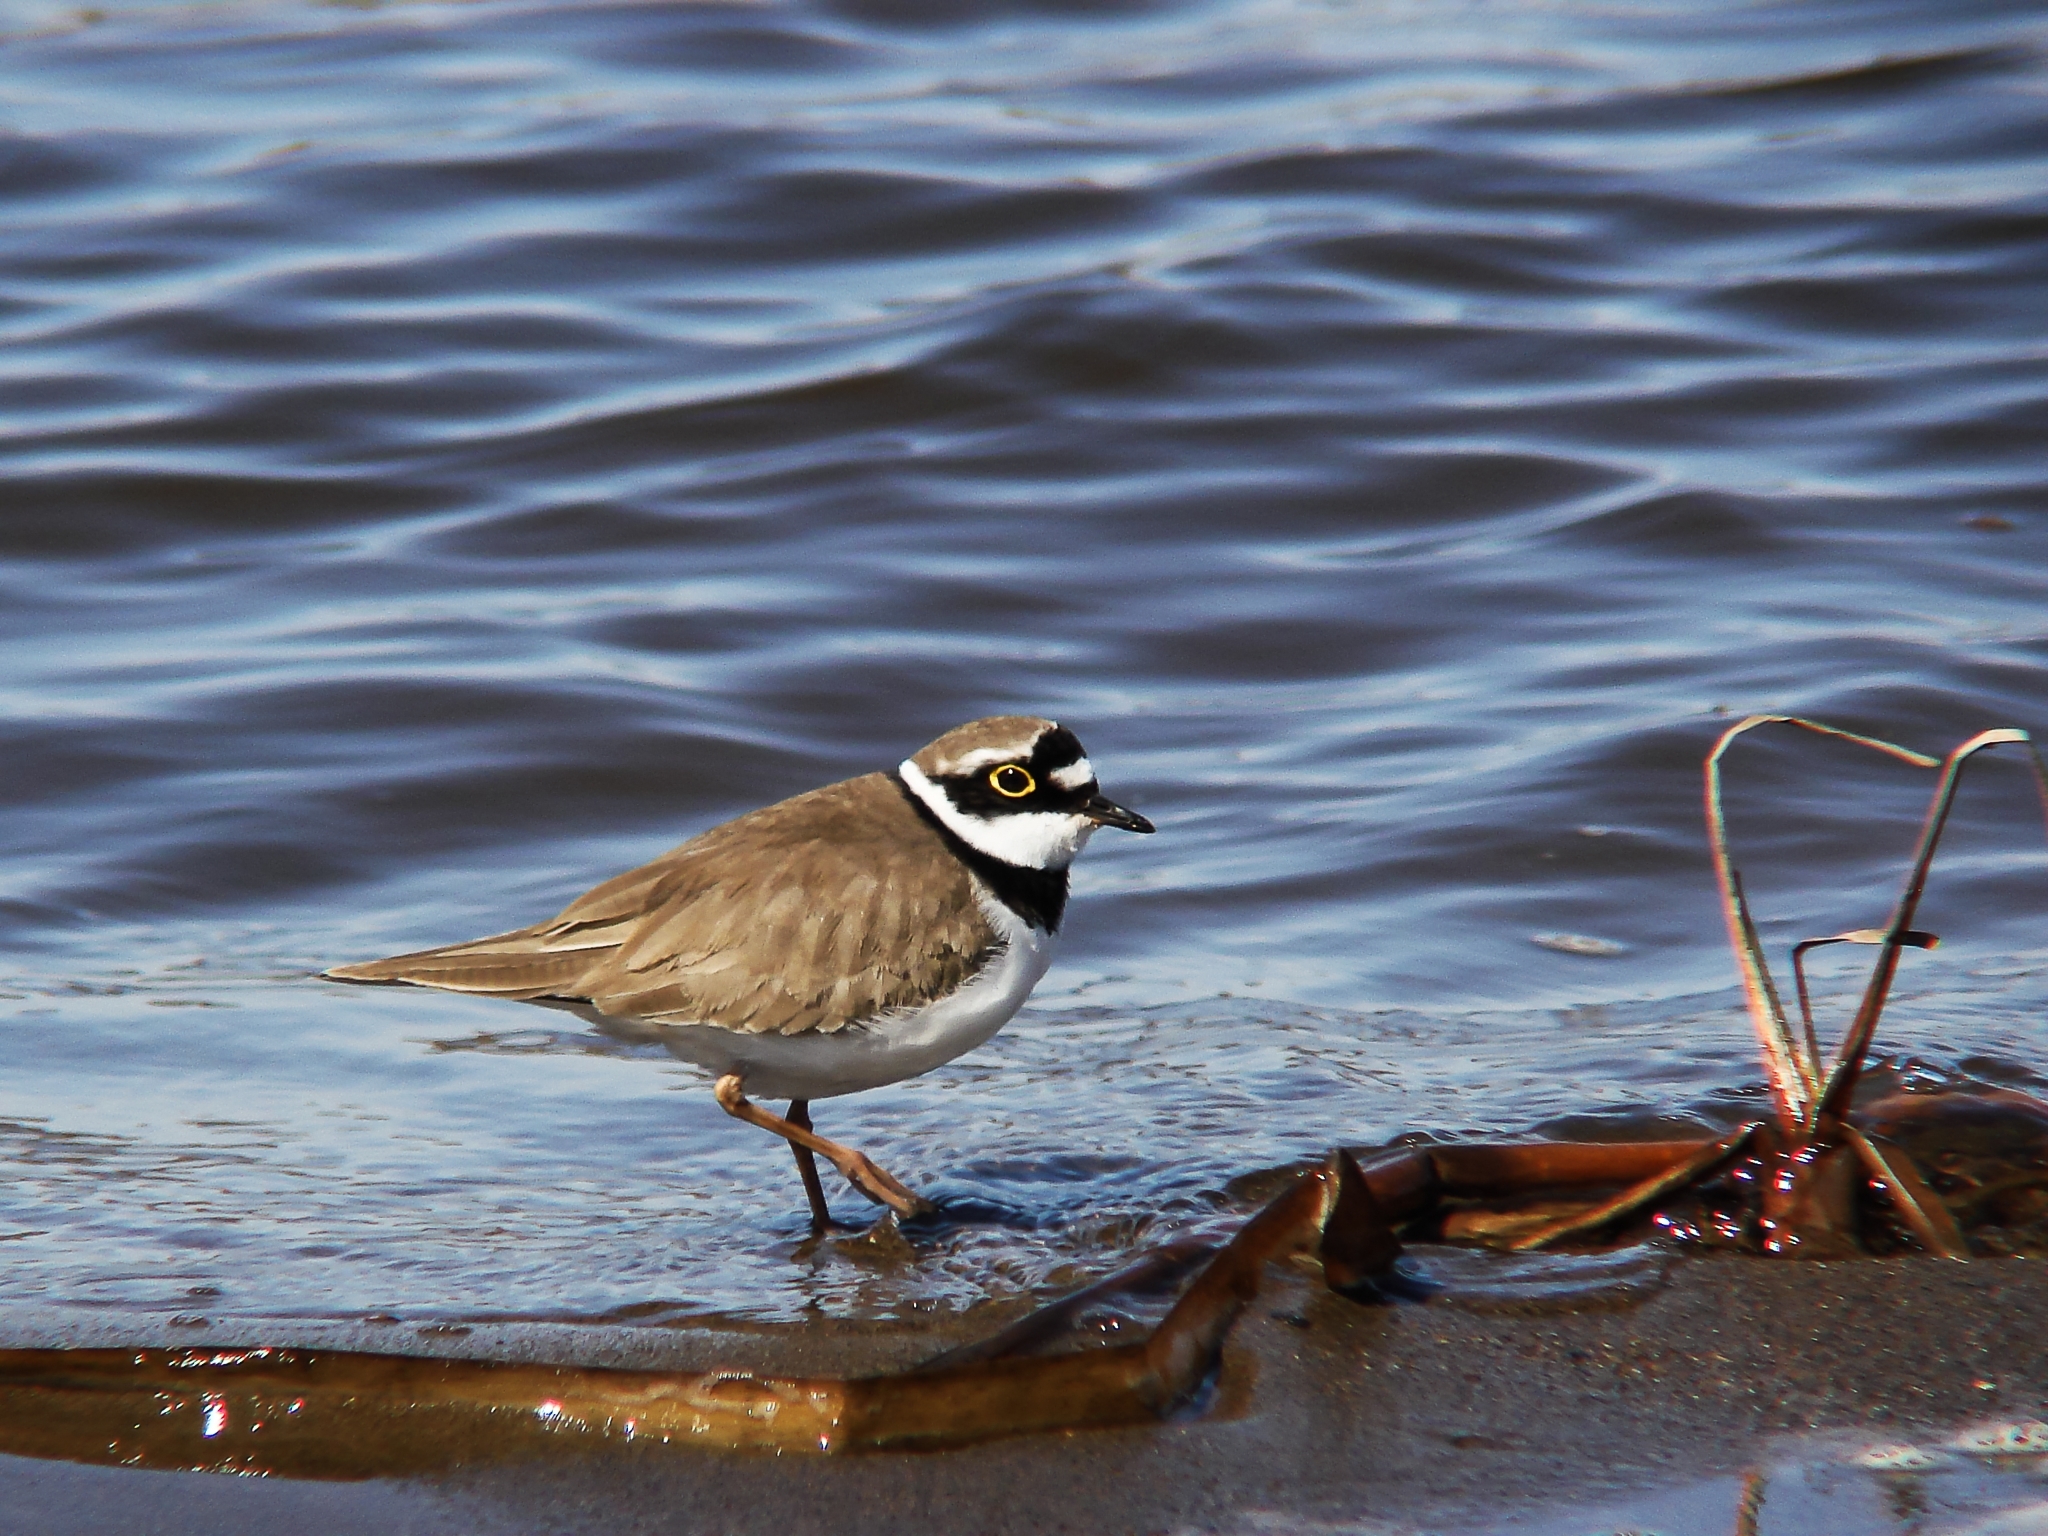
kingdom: Animalia
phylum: Chordata
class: Aves
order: Charadriiformes
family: Charadriidae
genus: Charadrius
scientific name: Charadrius dubius
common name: Little ringed plover
